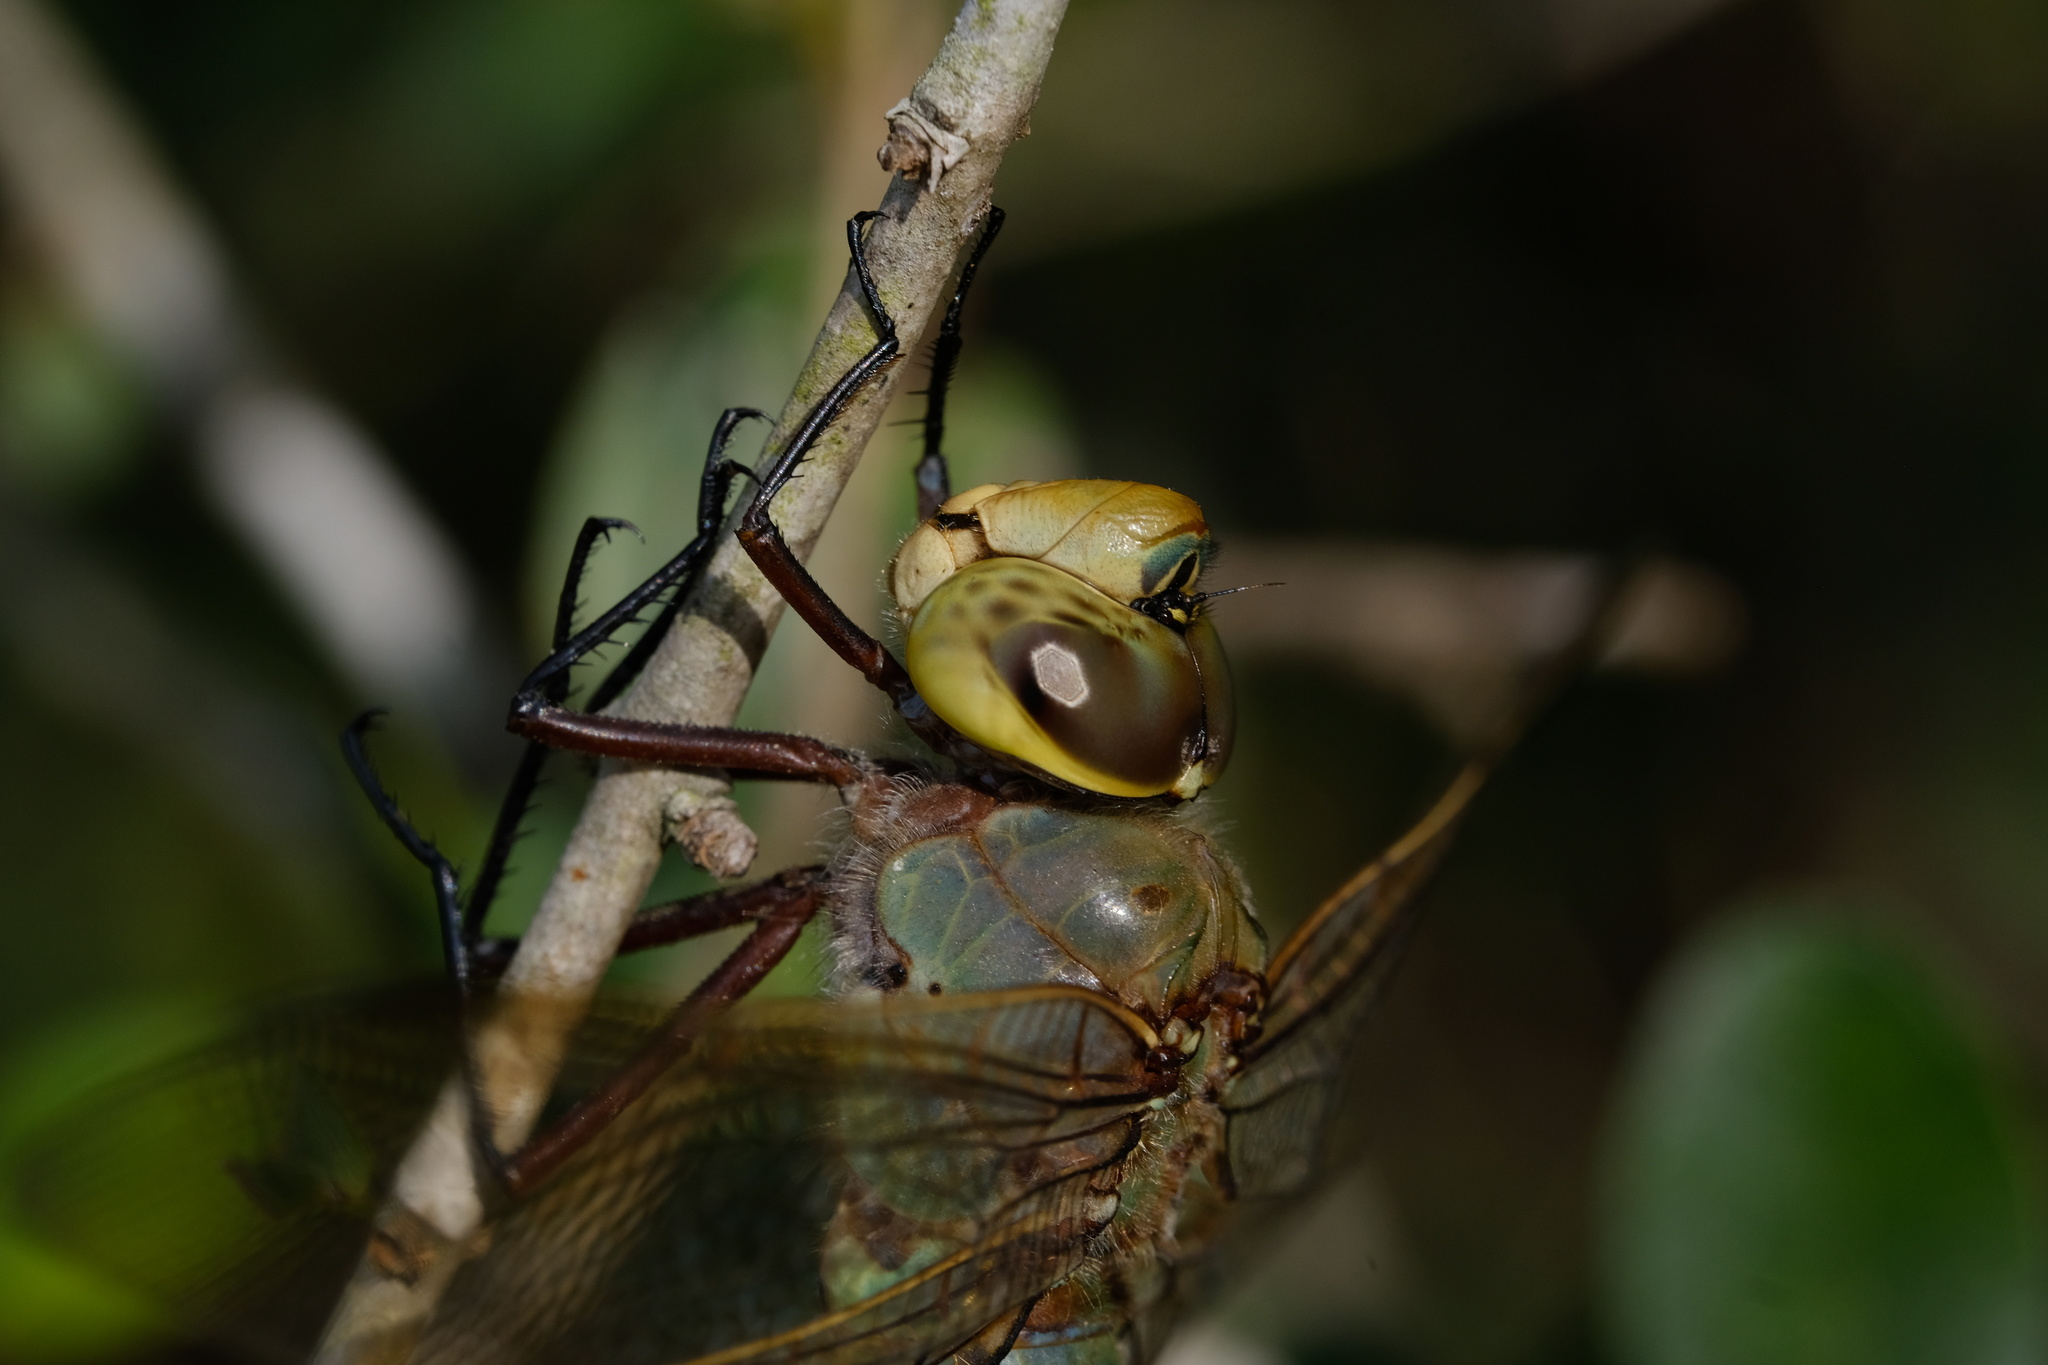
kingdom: Animalia
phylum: Arthropoda
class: Insecta
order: Odonata
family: Aeshnidae
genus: Anax
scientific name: Anax junius
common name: Common green darner
